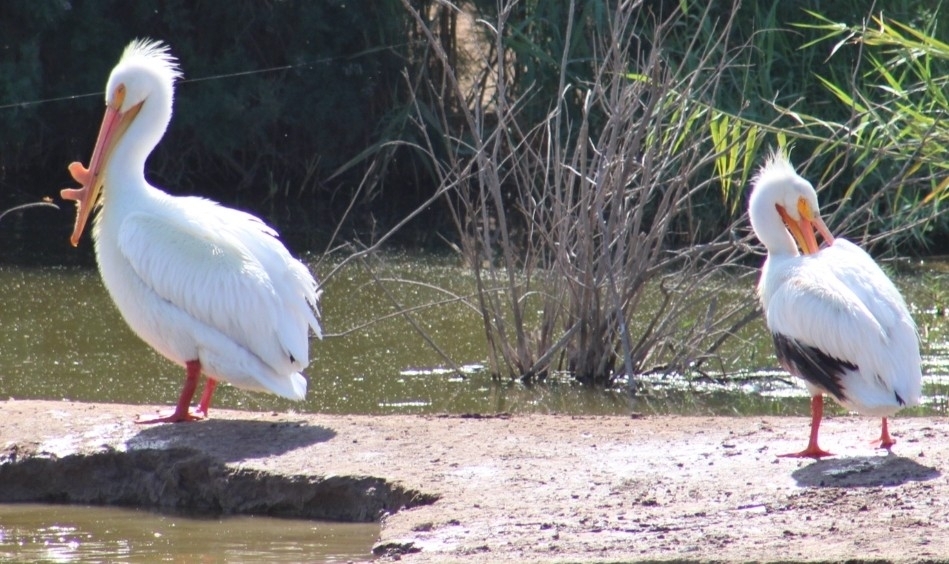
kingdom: Animalia
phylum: Chordata
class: Aves
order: Pelecaniformes
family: Pelecanidae
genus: Pelecanus
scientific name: Pelecanus erythrorhynchos
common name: American white pelican
